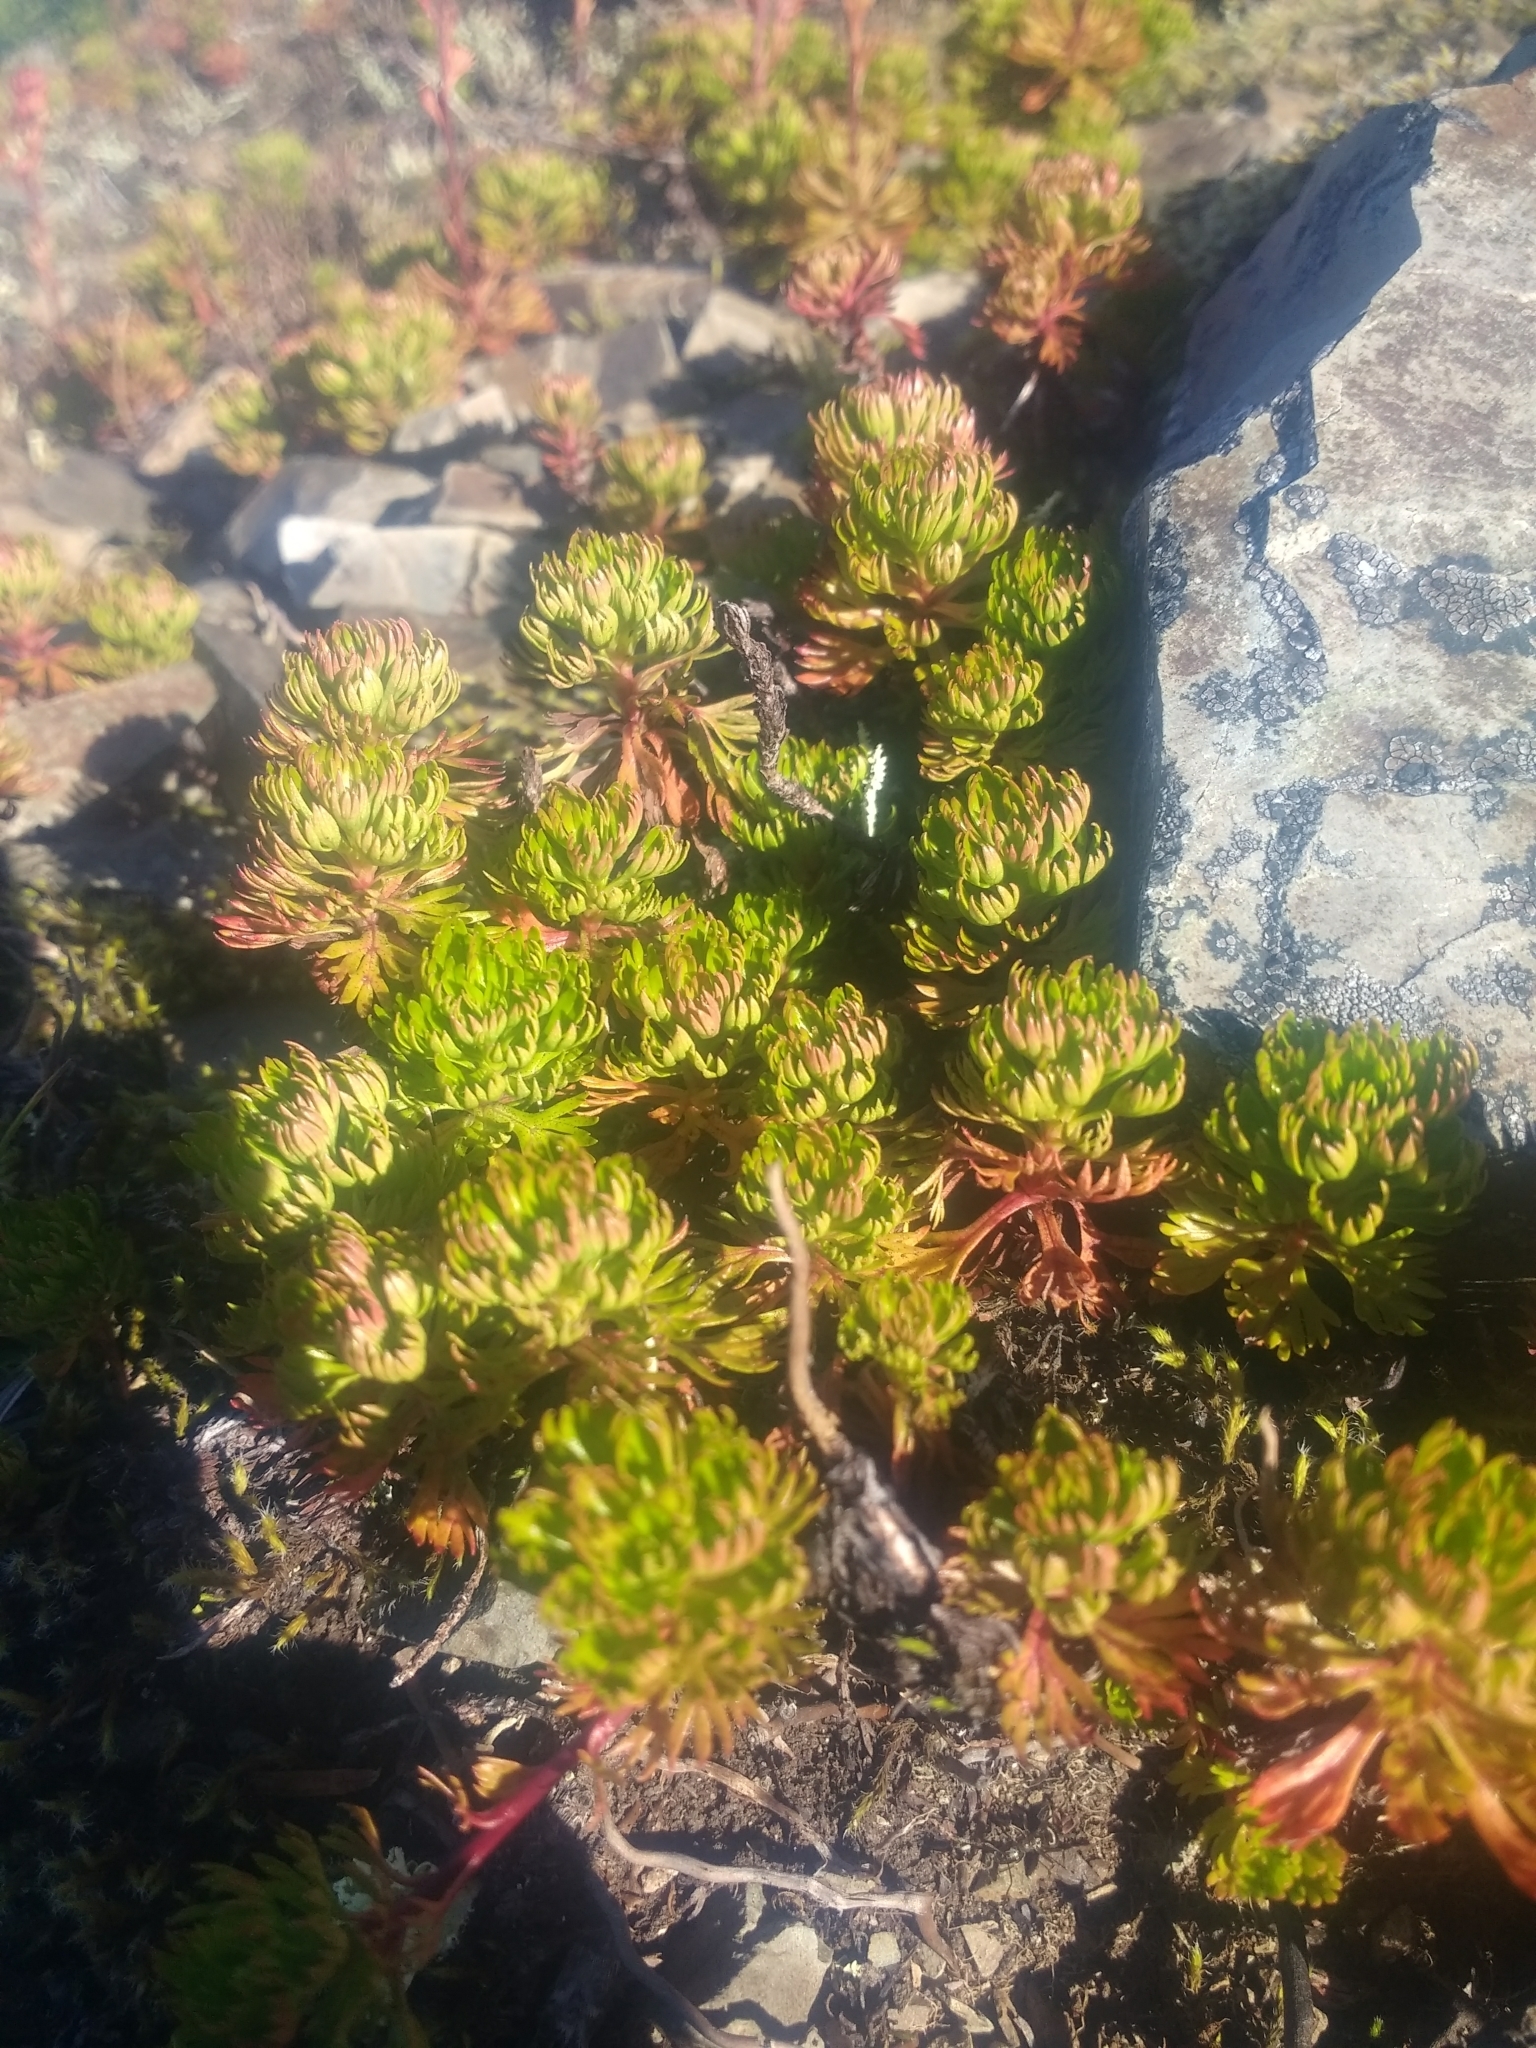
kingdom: Plantae
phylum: Tracheophyta
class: Magnoliopsida
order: Rosales
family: Rosaceae
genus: Luetkea
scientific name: Luetkea pectinata
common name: Partridgefoot
